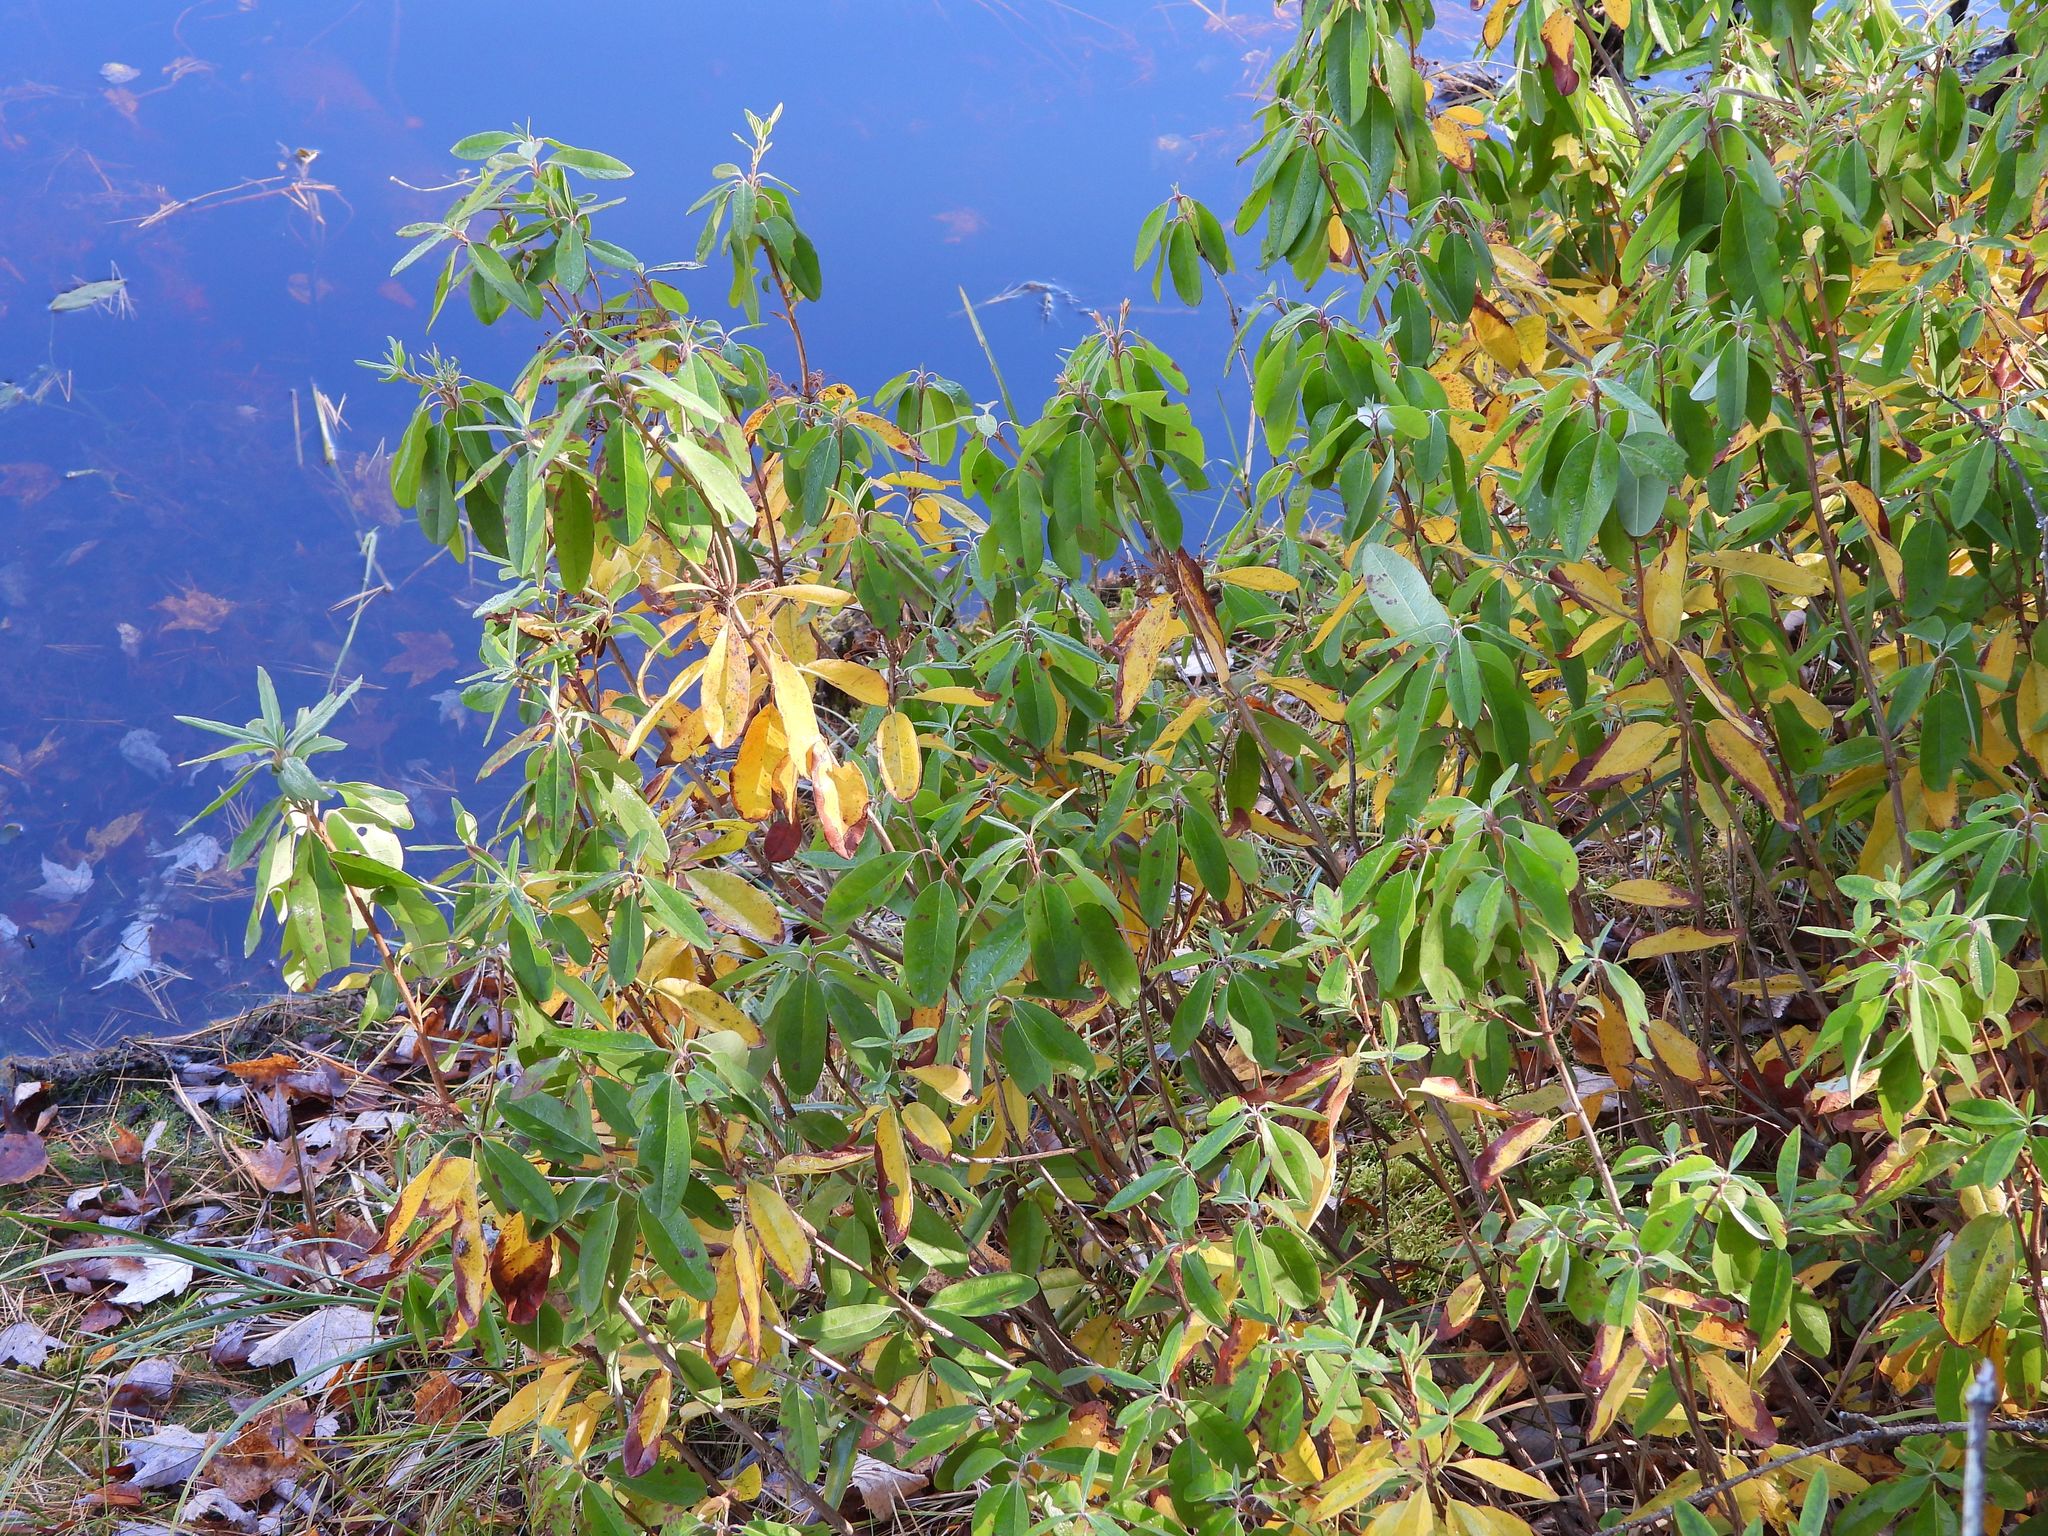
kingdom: Plantae
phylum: Tracheophyta
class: Magnoliopsida
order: Ericales
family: Ericaceae
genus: Kalmia
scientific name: Kalmia angustifolia
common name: Sheep-laurel
